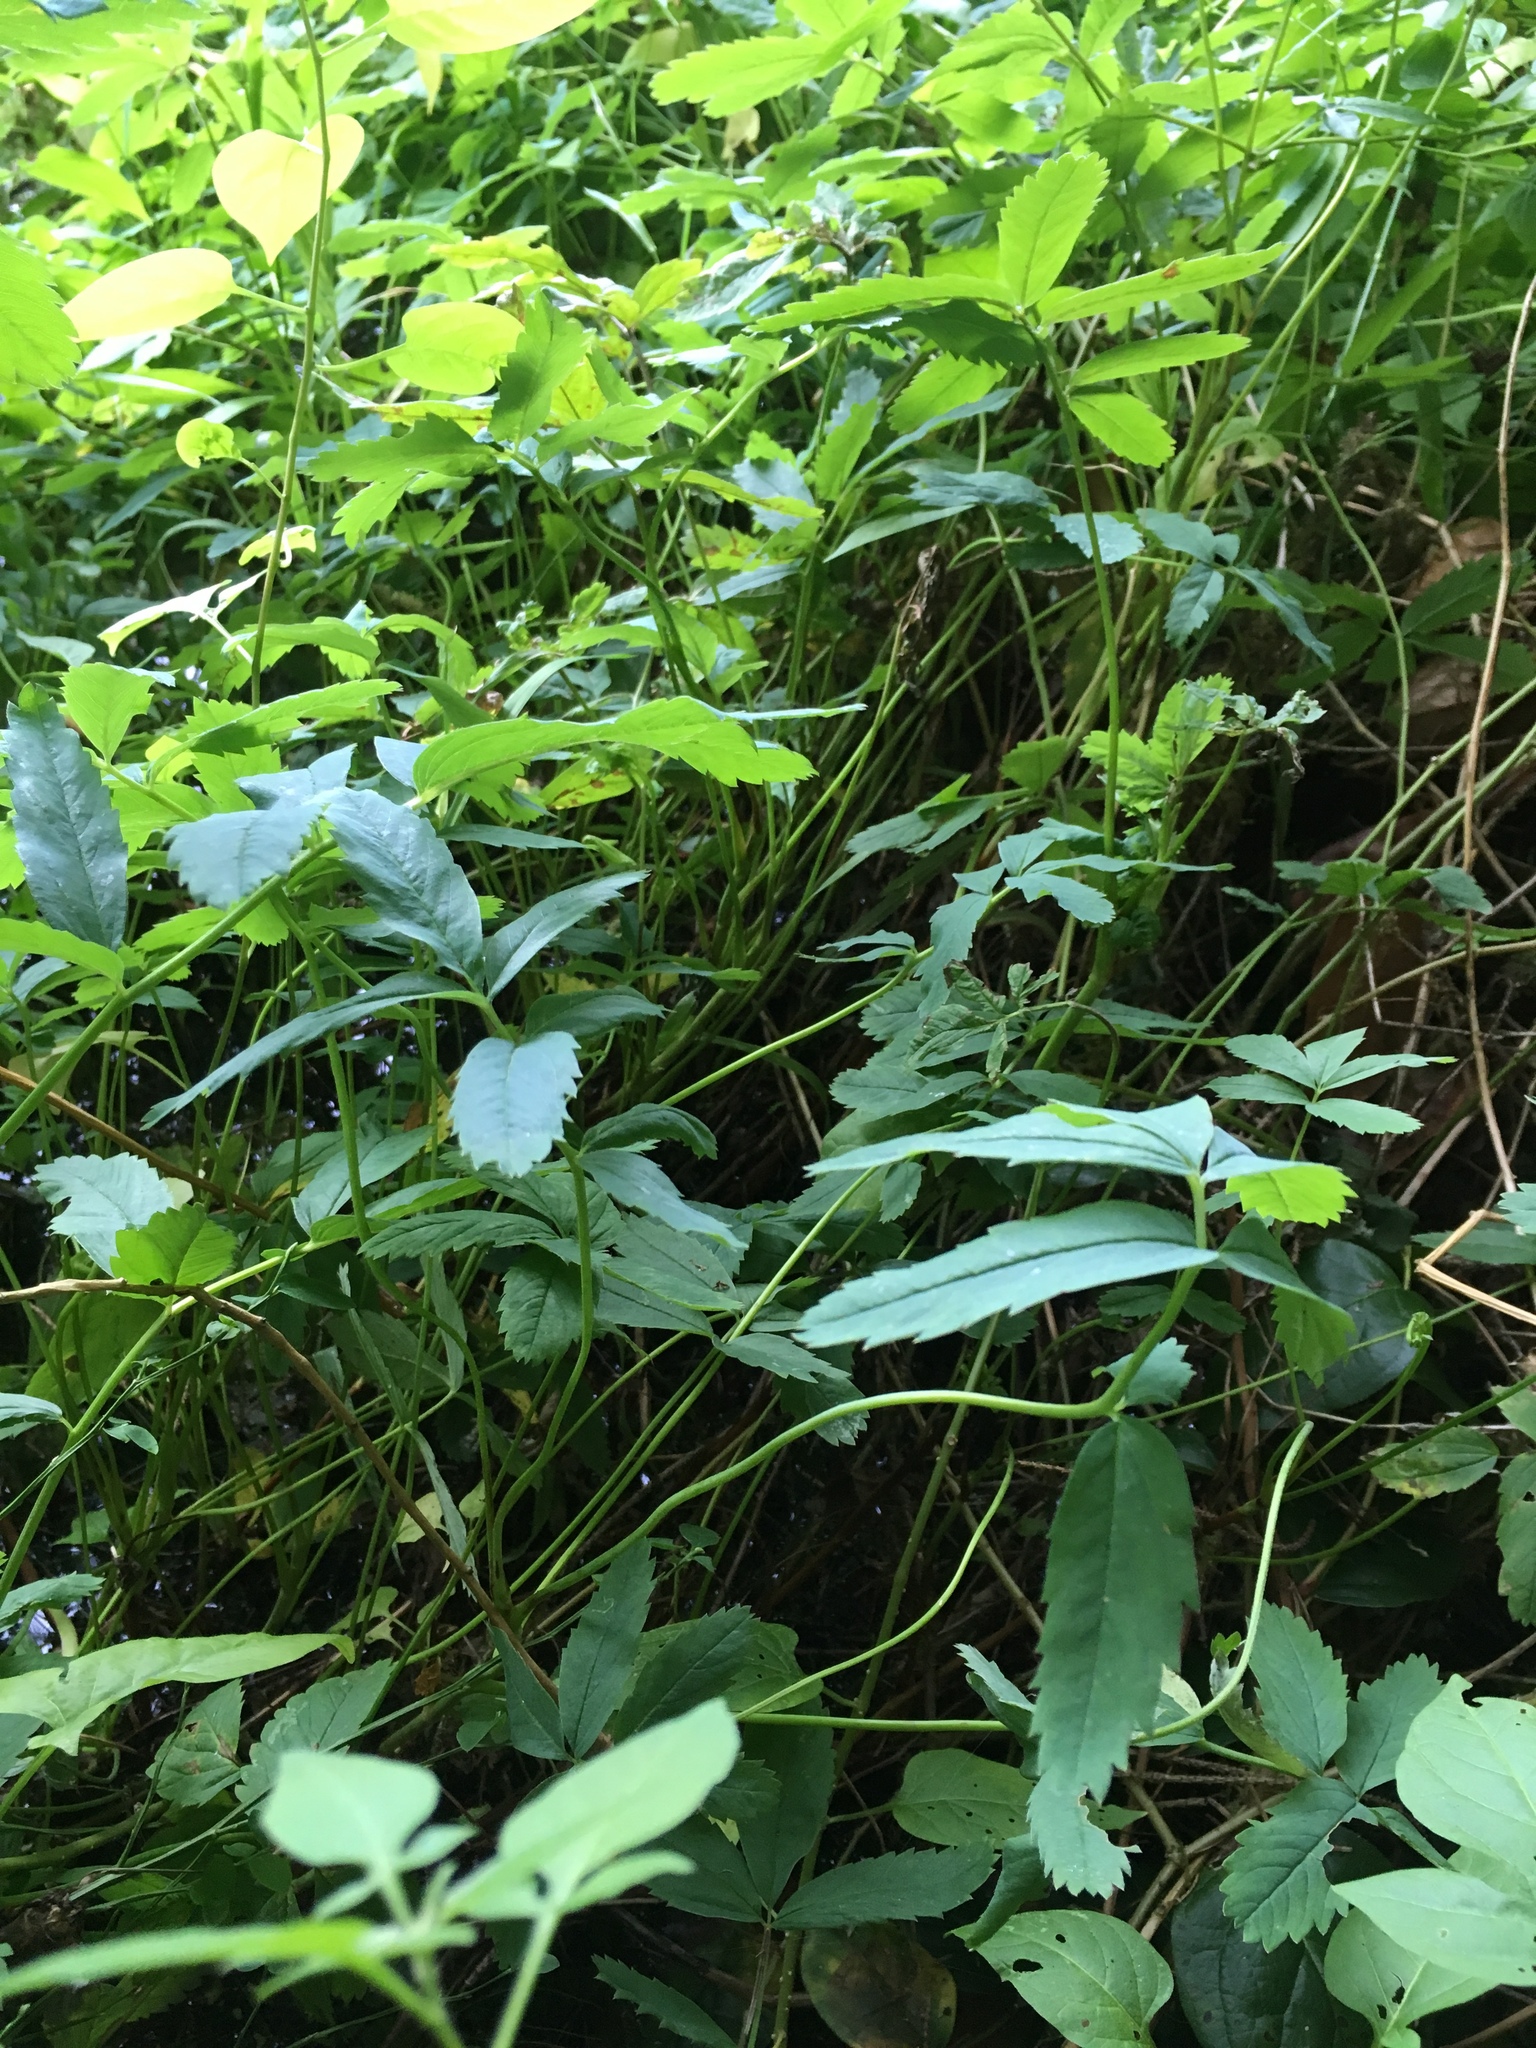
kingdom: Plantae
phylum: Tracheophyta
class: Magnoliopsida
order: Rosales
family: Rosaceae
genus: Comarum
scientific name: Comarum palustre
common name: Marsh cinquefoil
